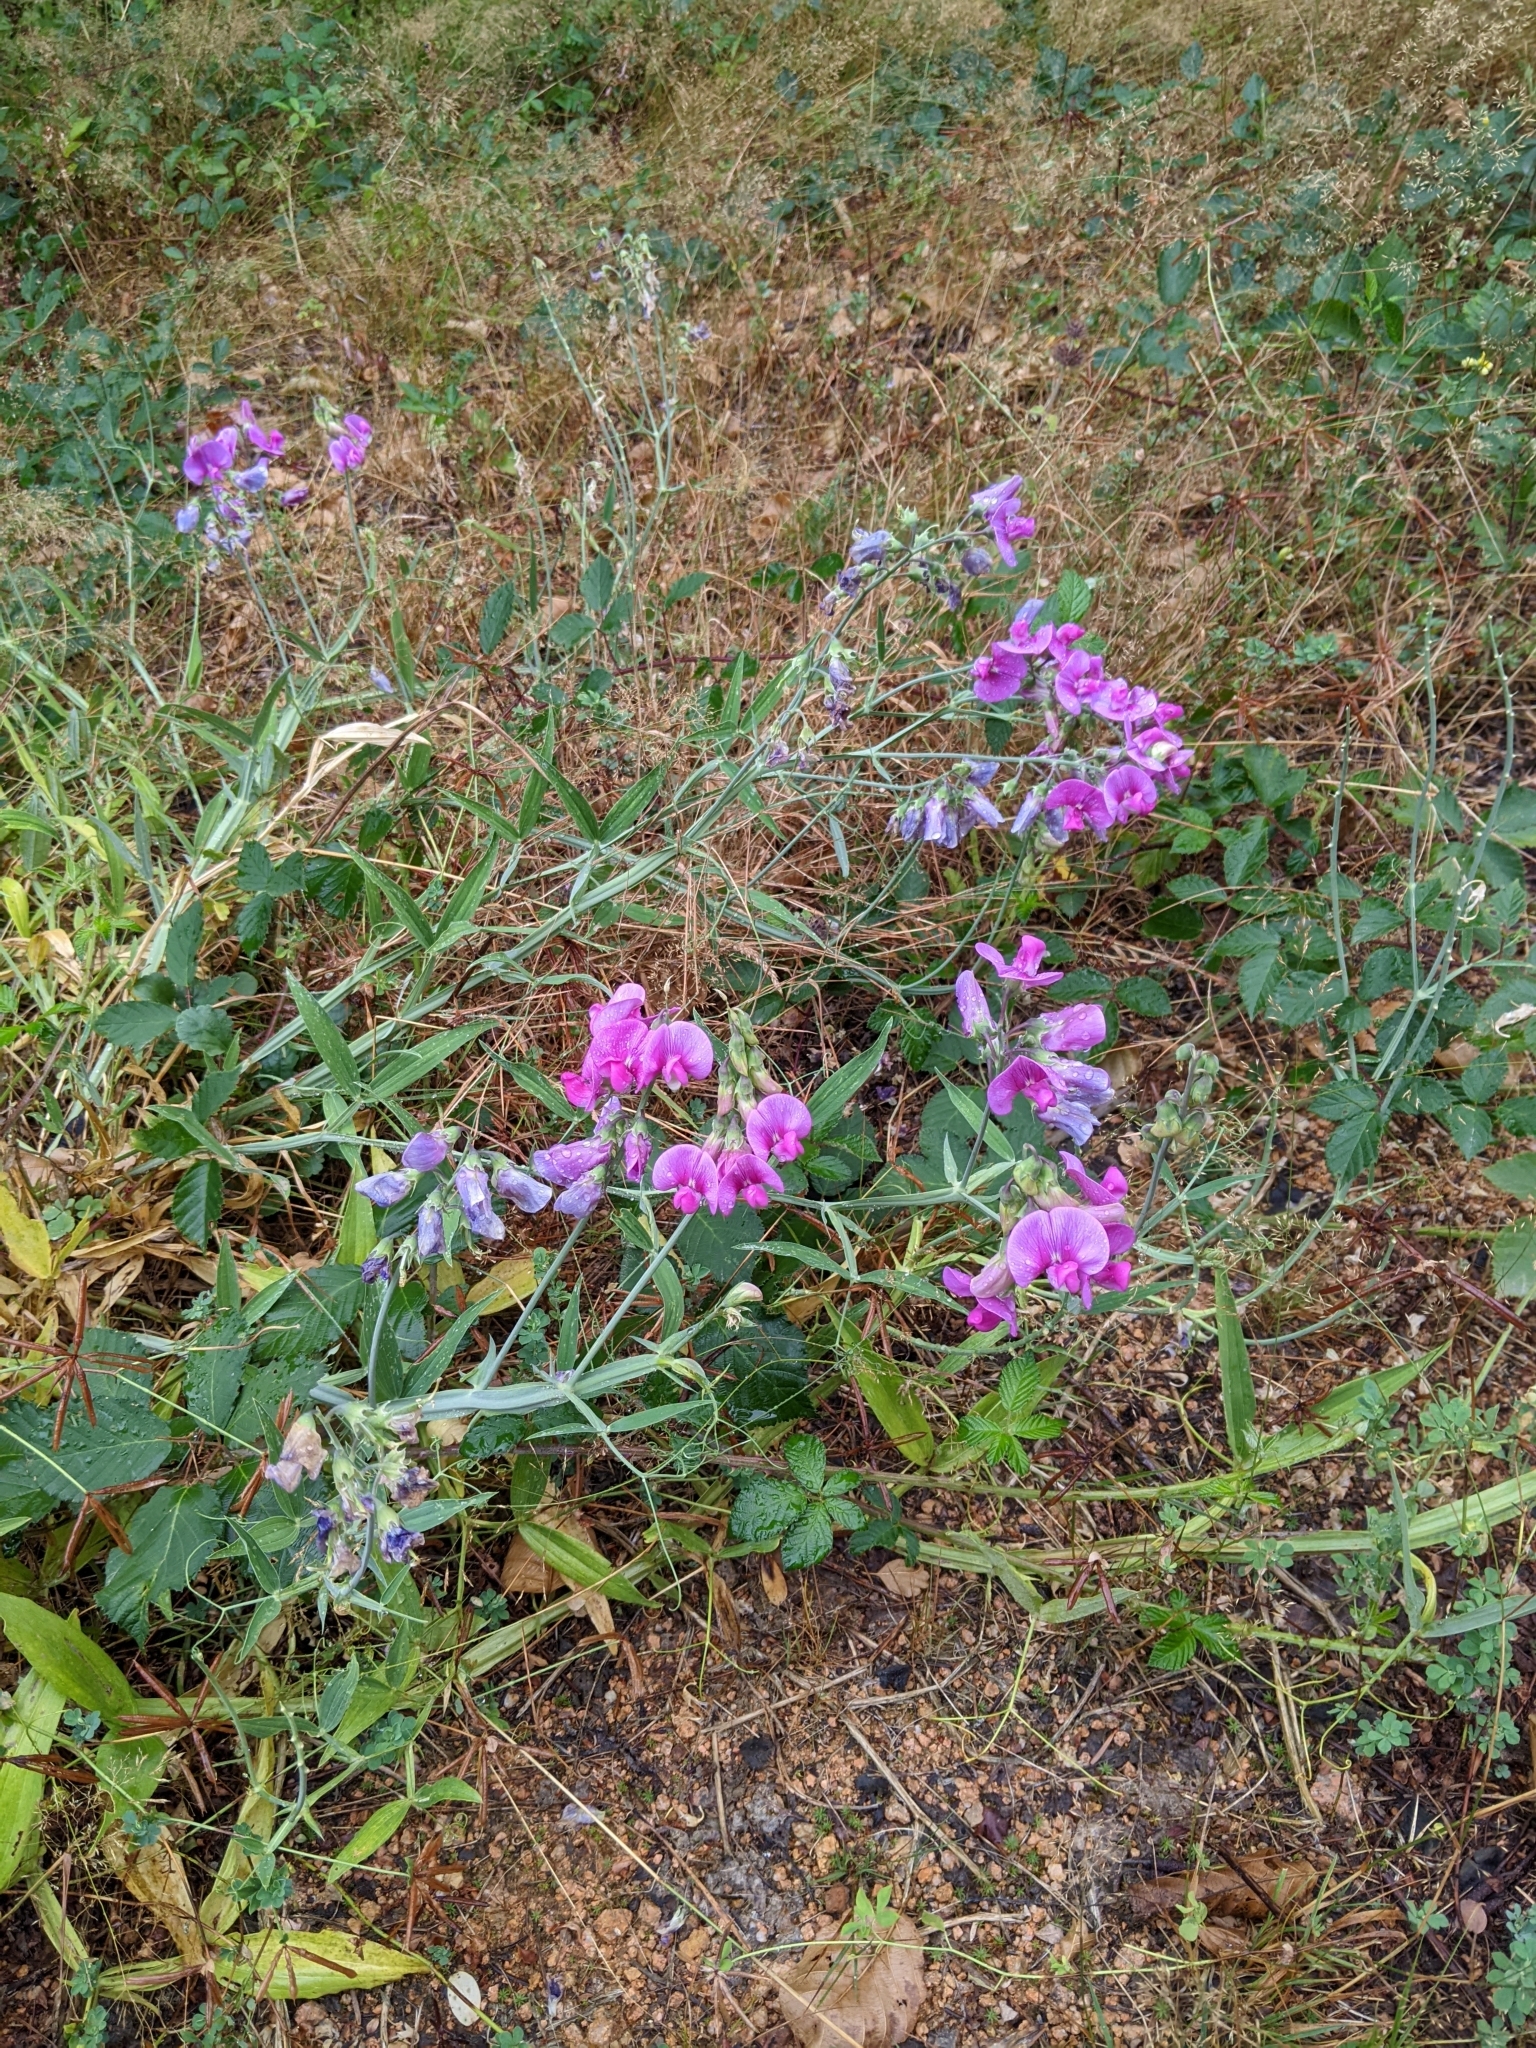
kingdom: Plantae
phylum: Tracheophyta
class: Magnoliopsida
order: Fabales
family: Fabaceae
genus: Lathyrus
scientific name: Lathyrus latifolius
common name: Perennial pea
